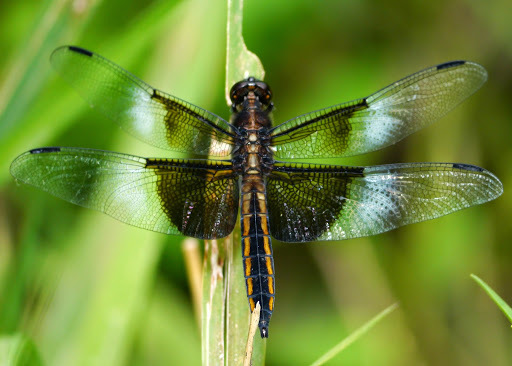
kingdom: Animalia
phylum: Arthropoda
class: Insecta
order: Odonata
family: Libellulidae
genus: Libellula
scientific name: Libellula luctuosa
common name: Widow skimmer
